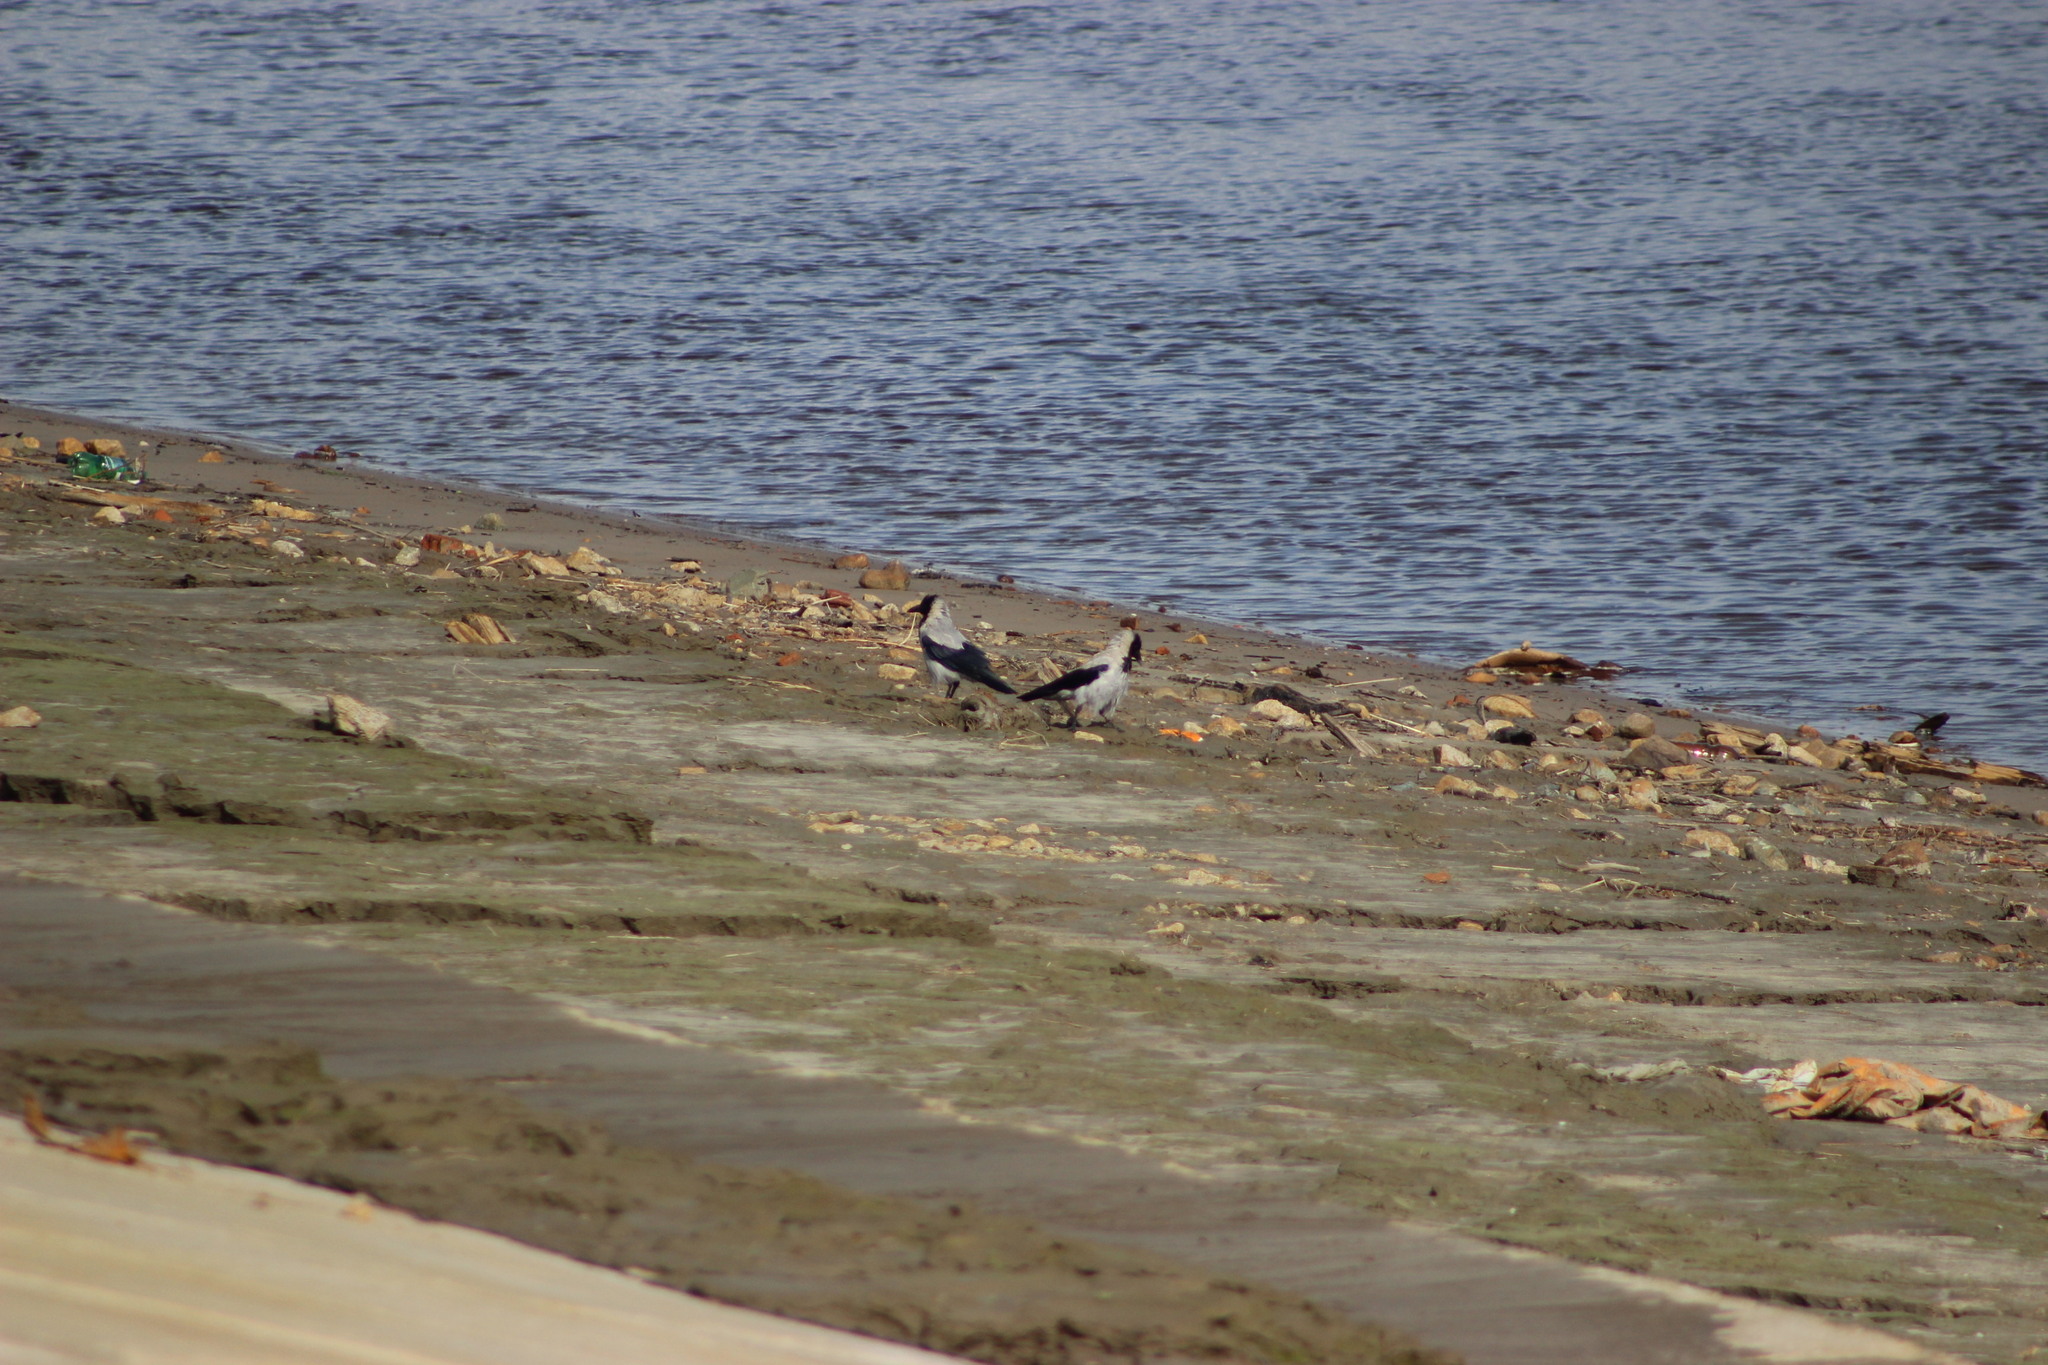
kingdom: Animalia
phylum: Chordata
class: Aves
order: Passeriformes
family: Corvidae
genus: Corvus
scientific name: Corvus cornix
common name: Hooded crow
